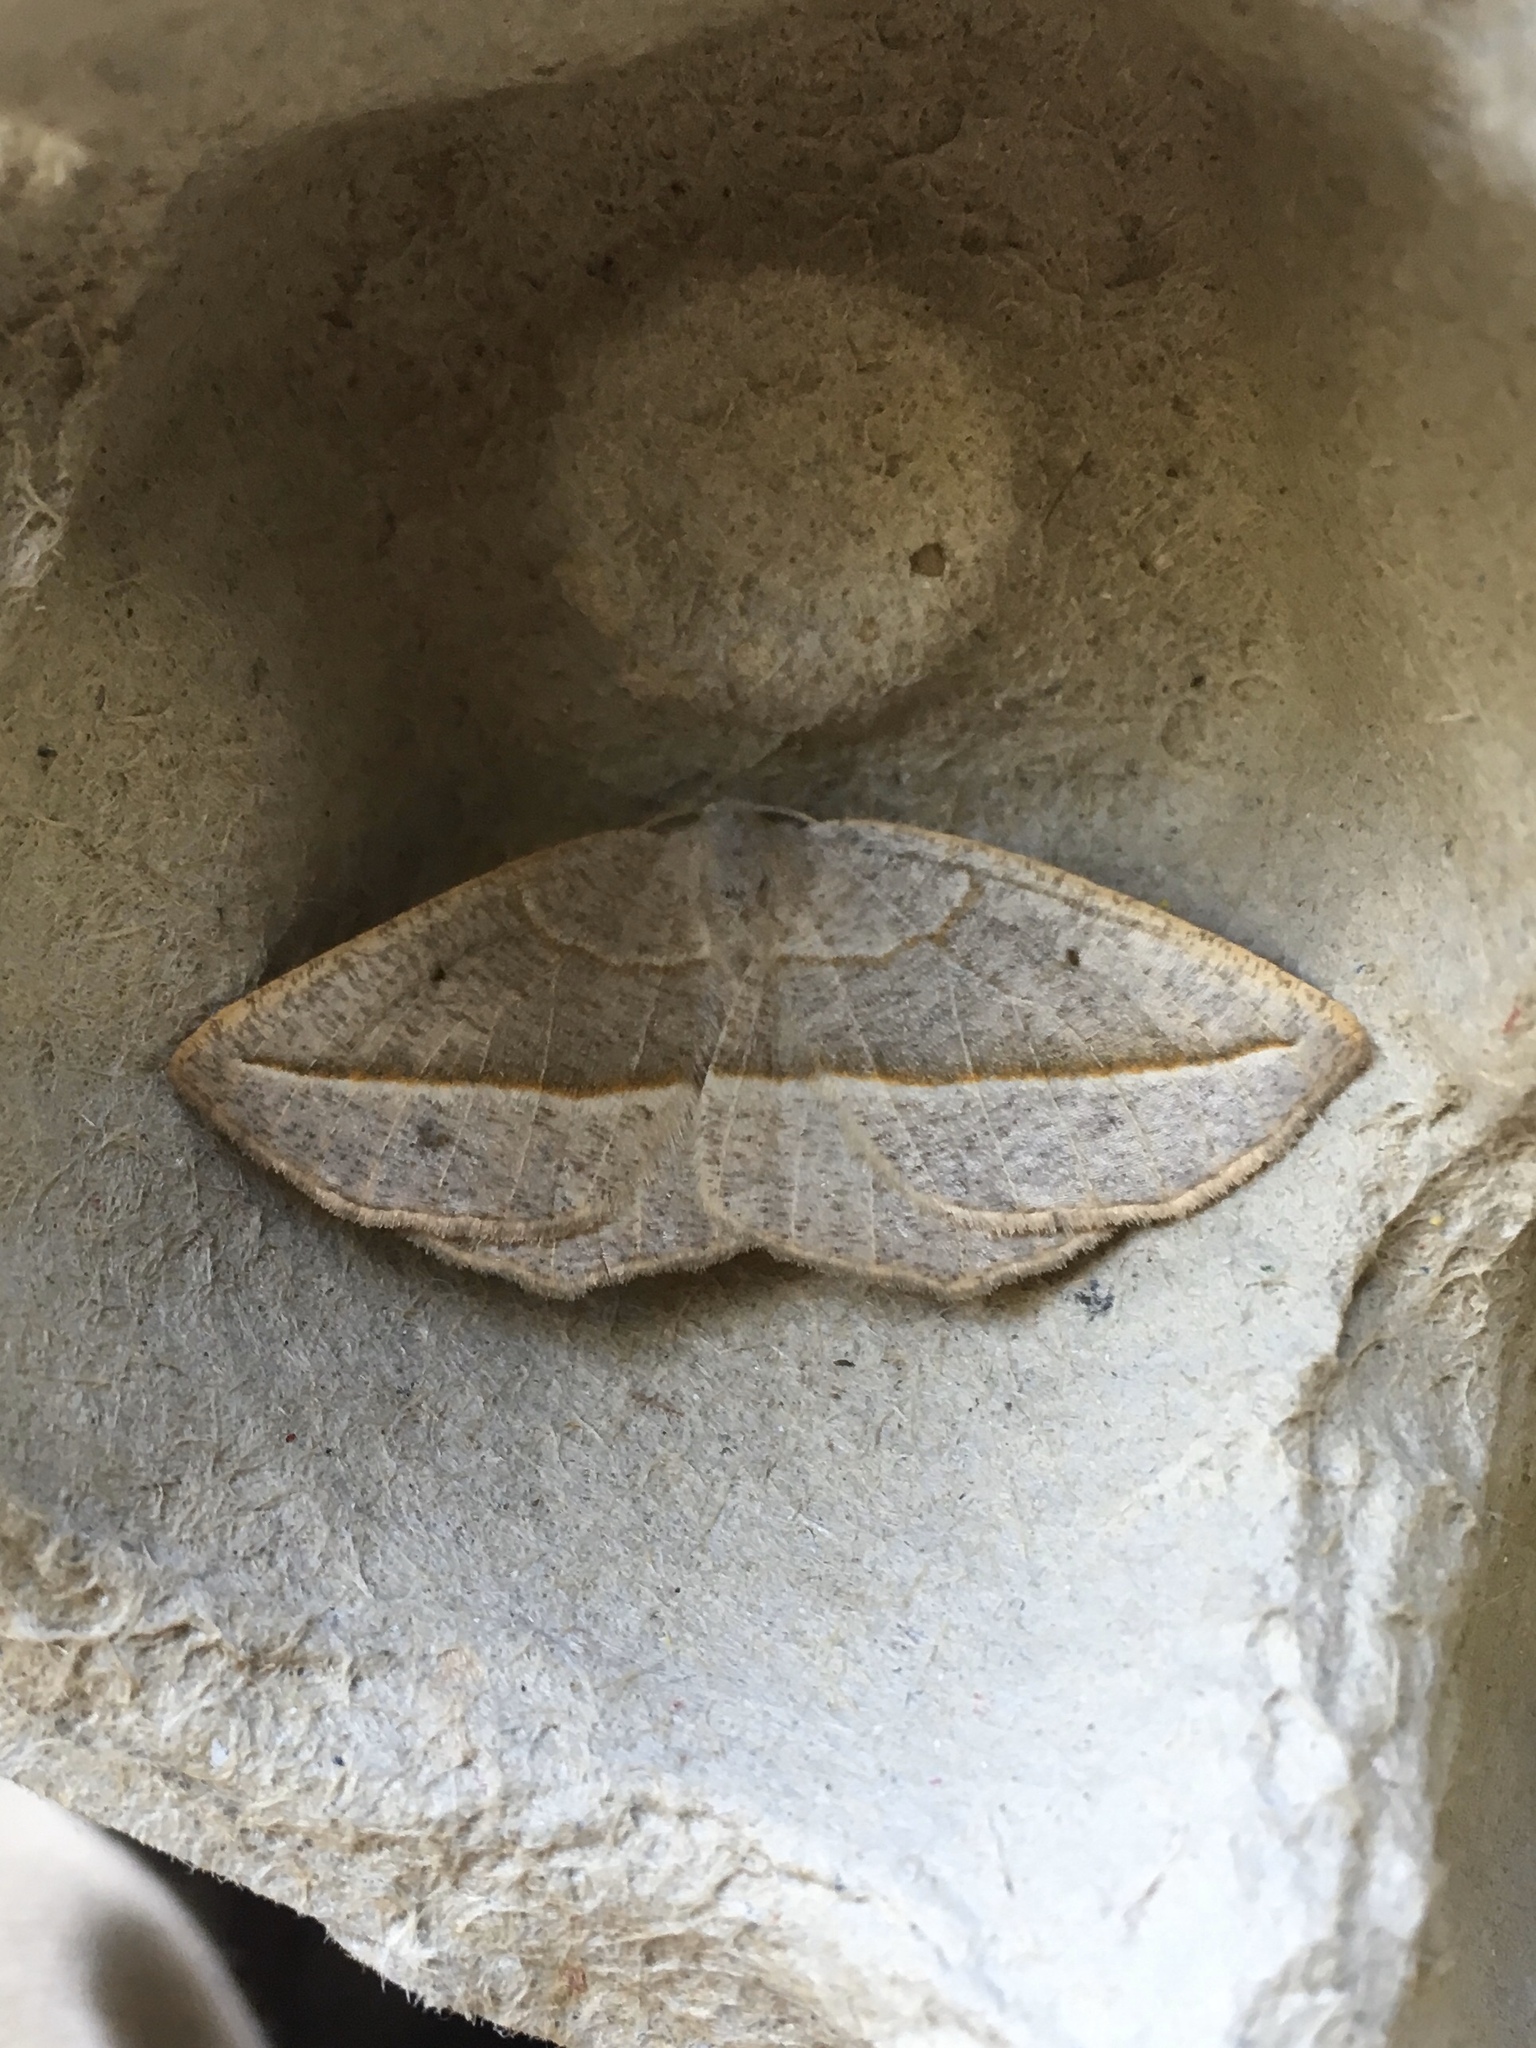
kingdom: Animalia
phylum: Arthropoda
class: Insecta
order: Lepidoptera
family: Geometridae
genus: Eusarca
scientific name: Eusarca confusaria
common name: Confused eusarca
